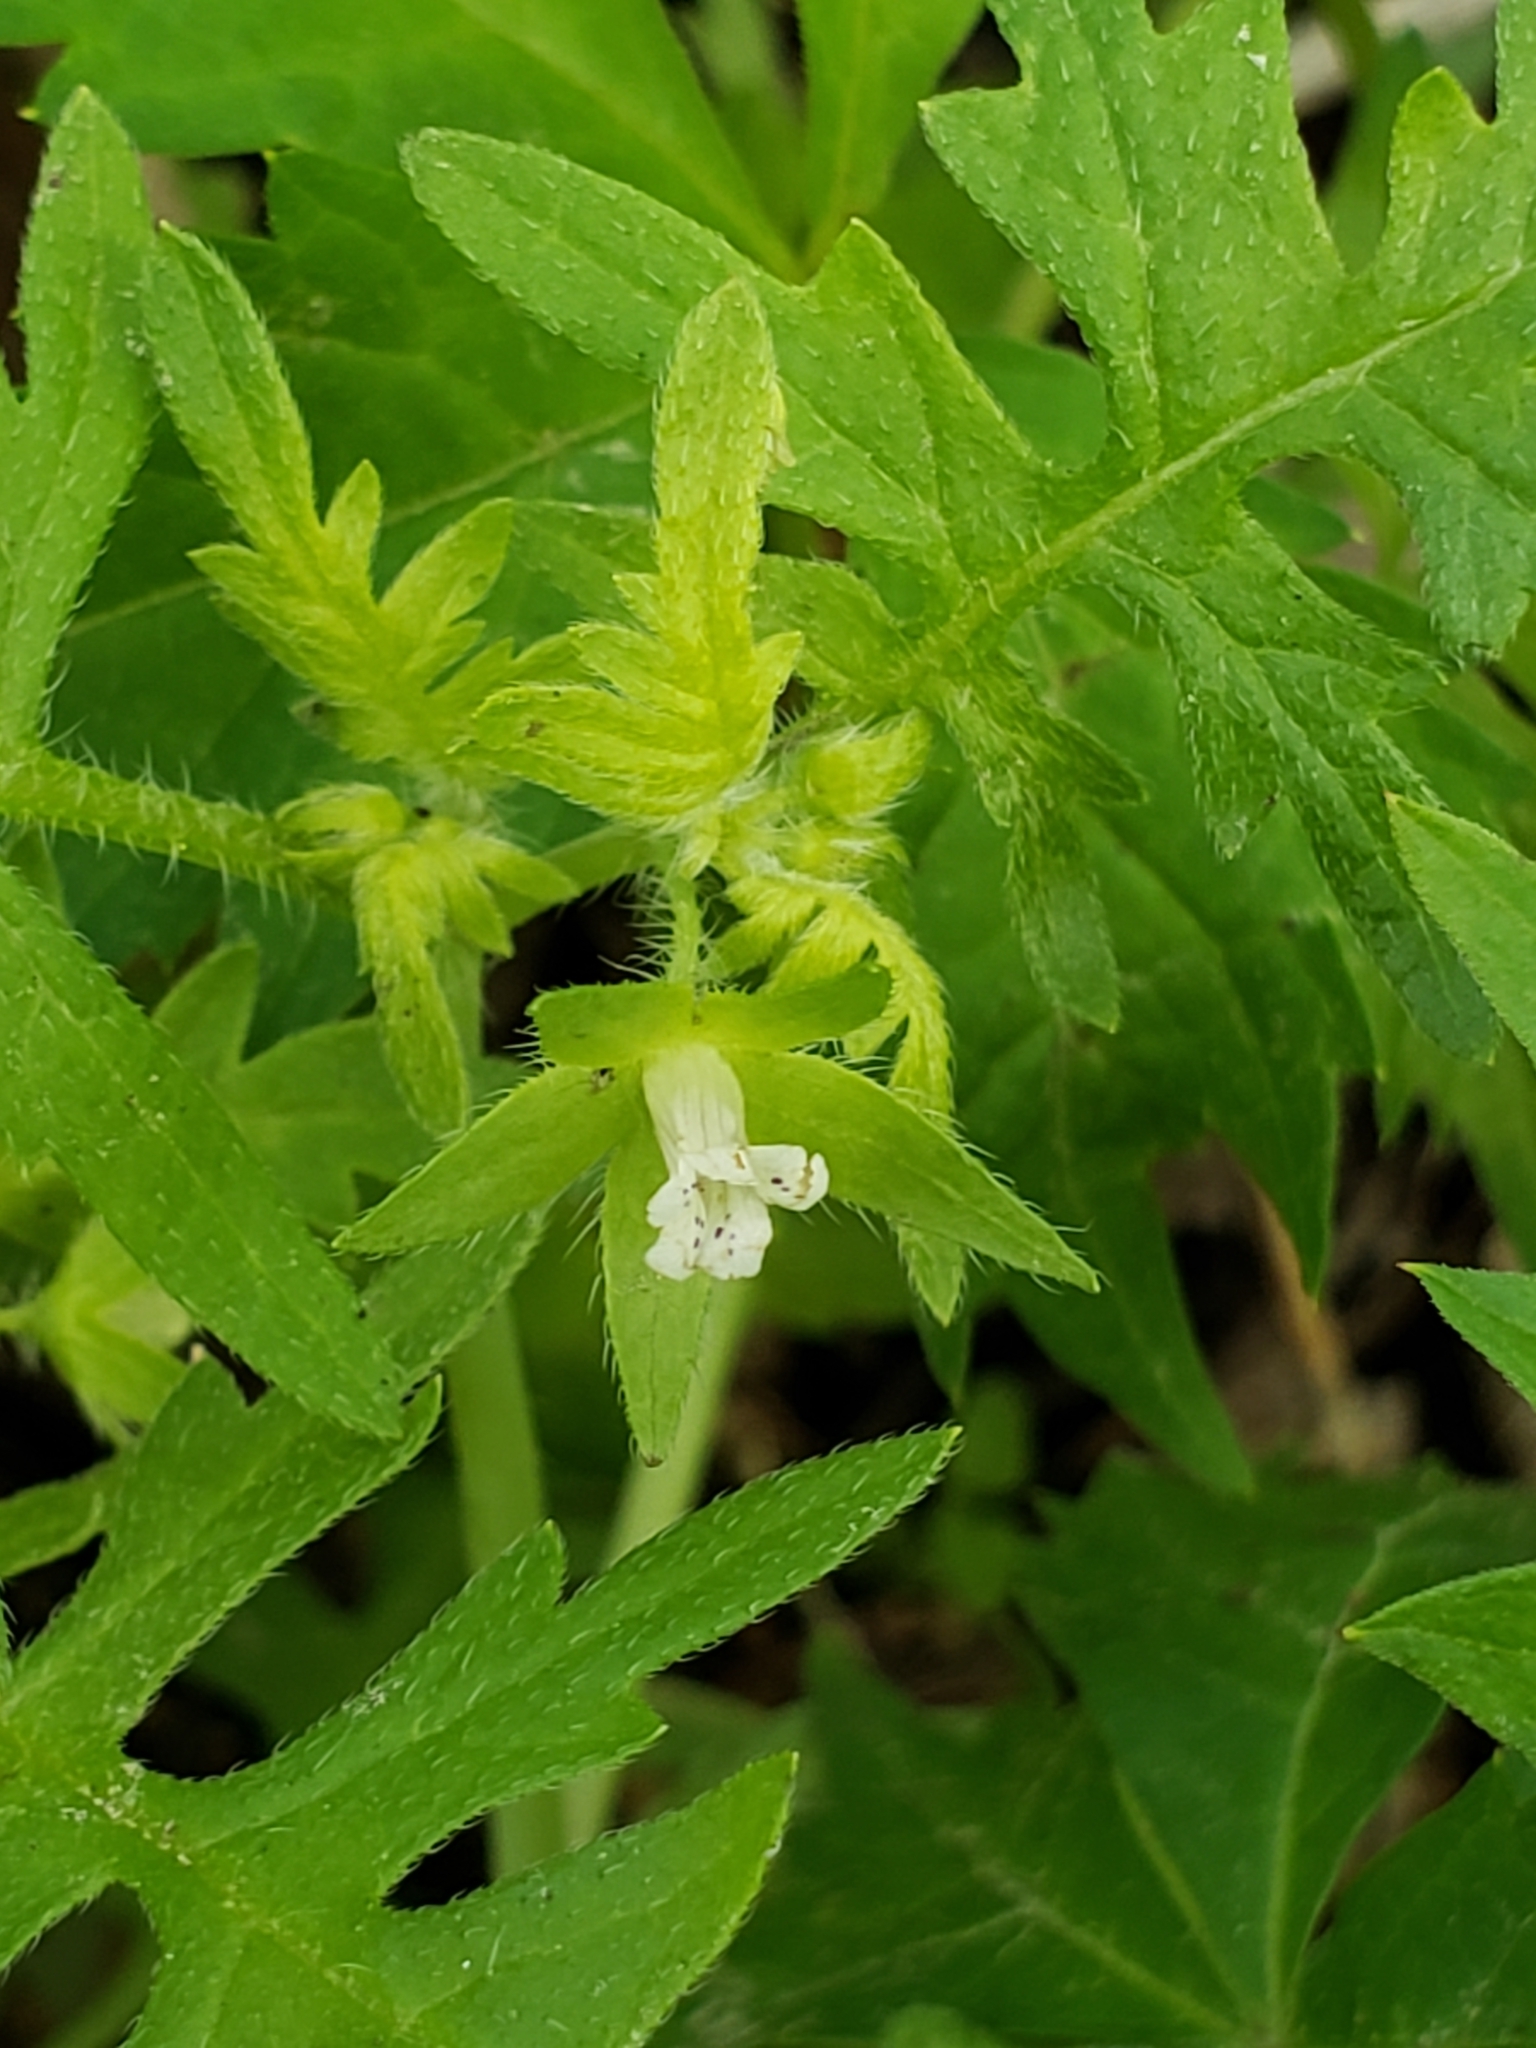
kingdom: Plantae
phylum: Tracheophyta
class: Magnoliopsida
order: Boraginales
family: Hydrophyllaceae
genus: Ellisia
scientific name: Ellisia nyctelea
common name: Aunt lucy
